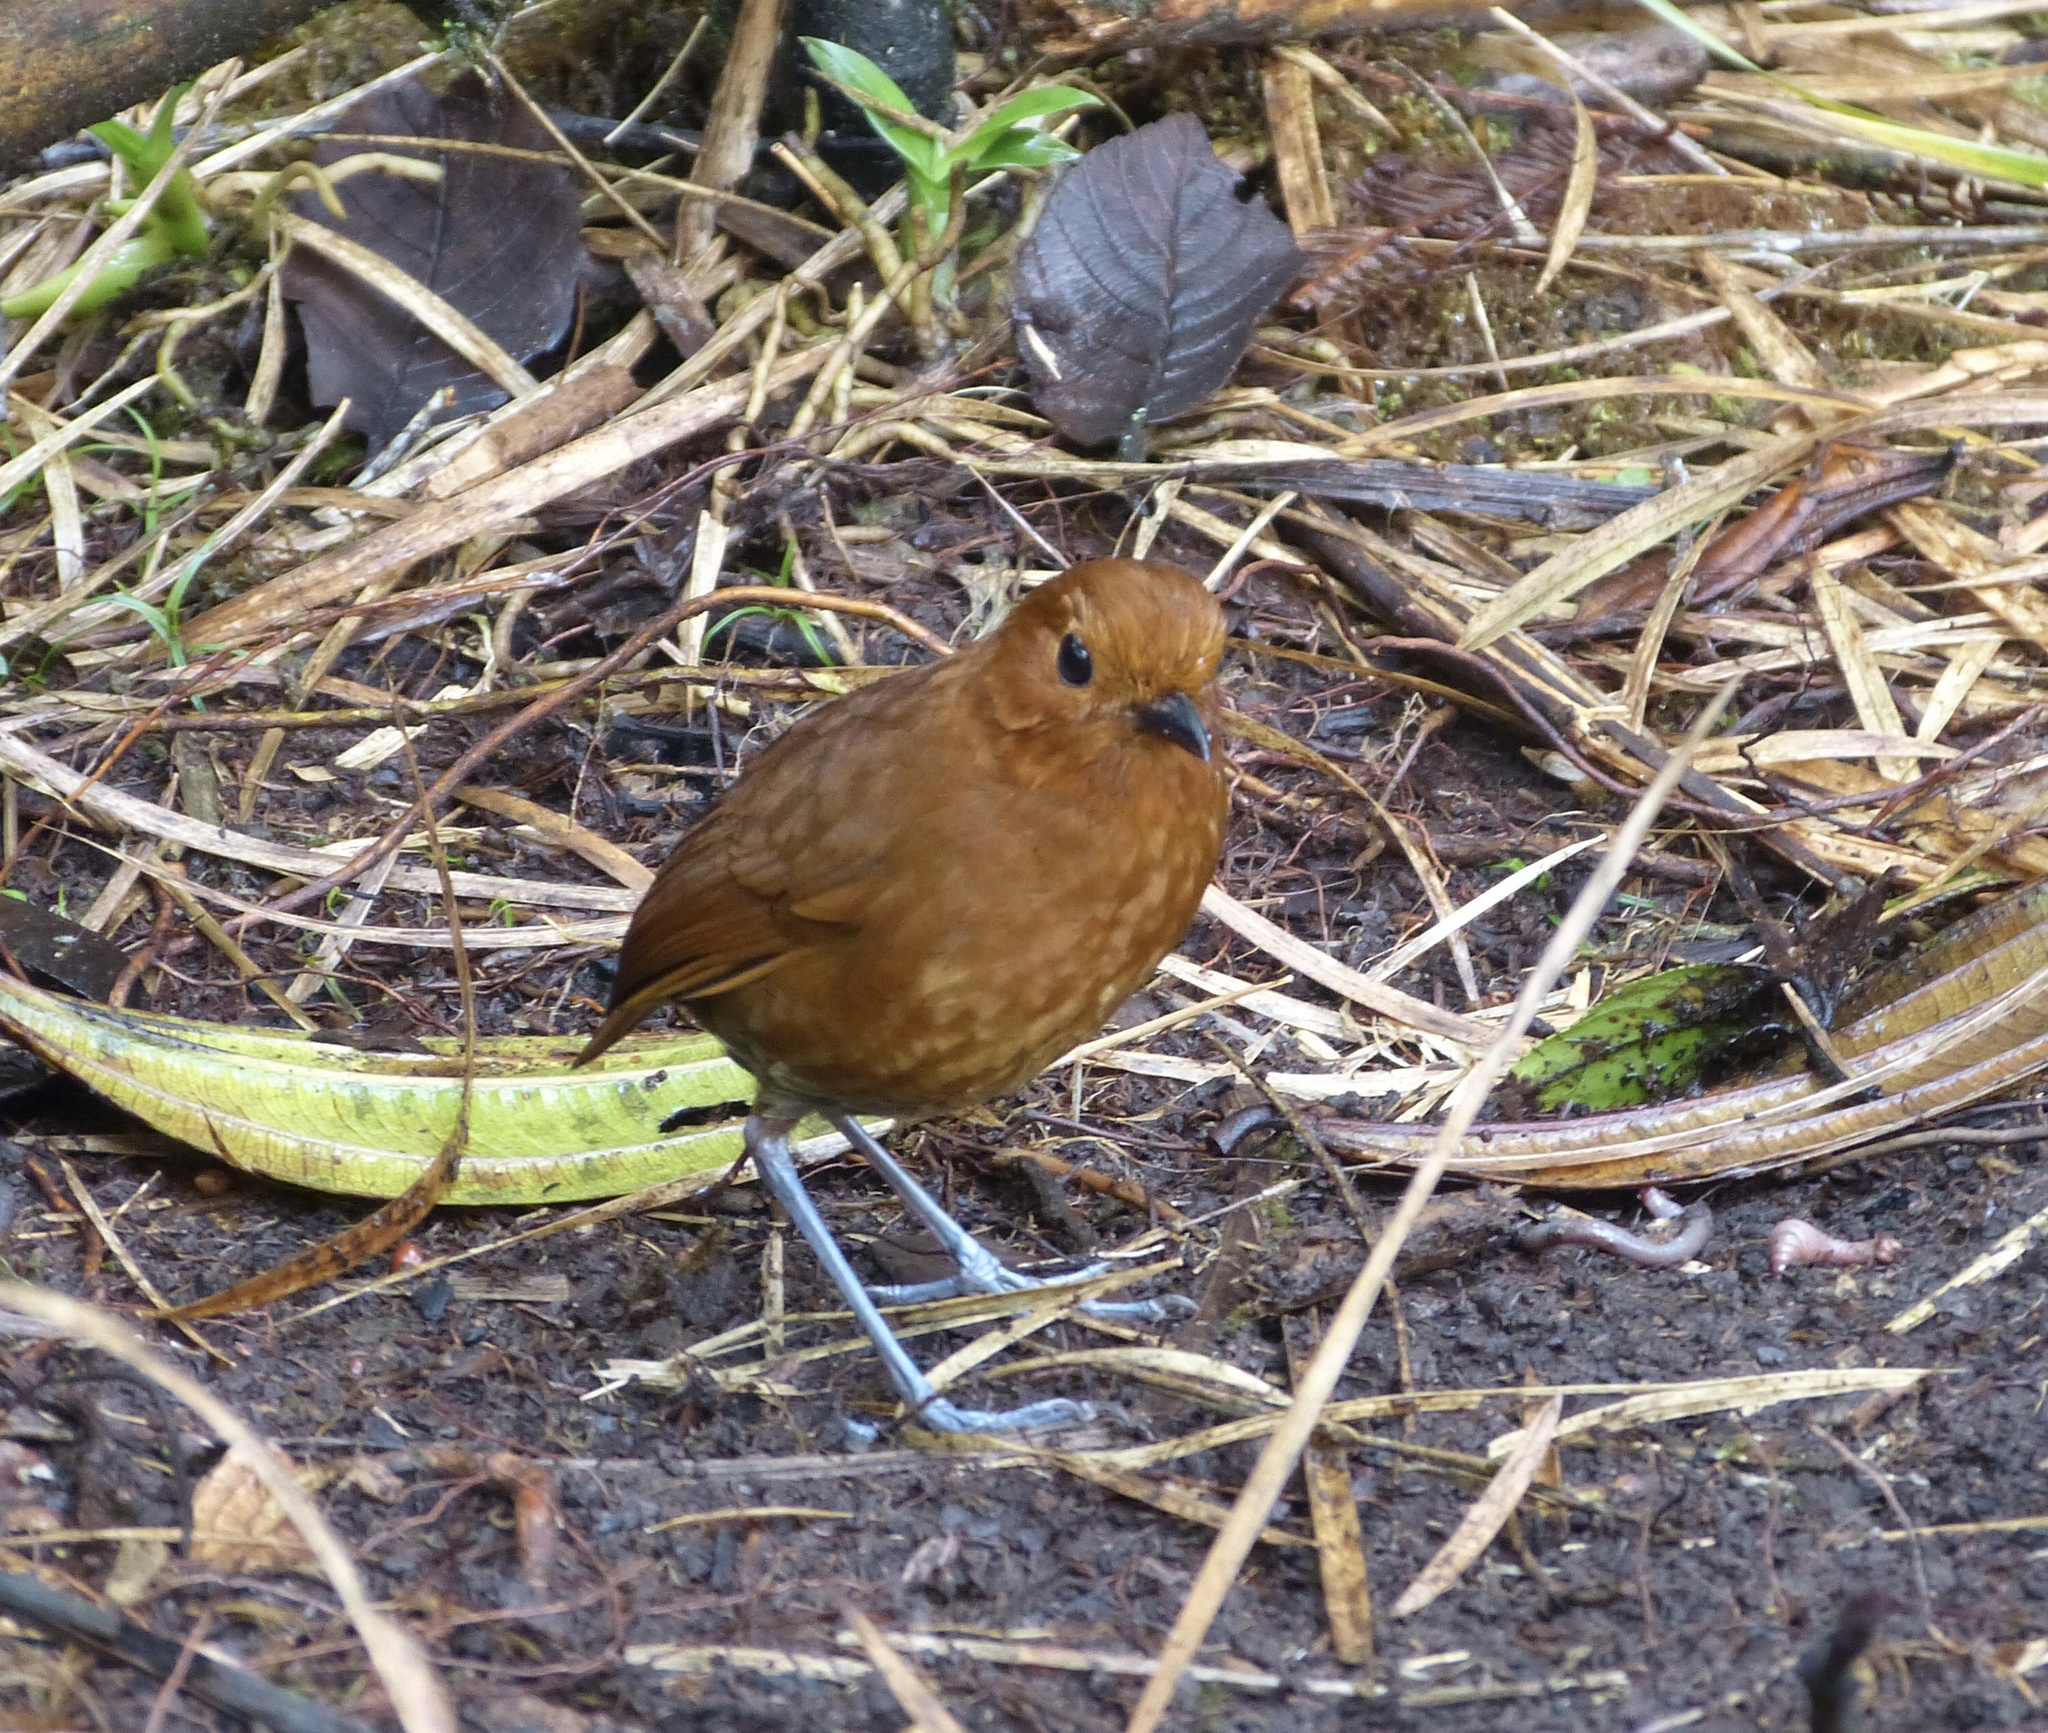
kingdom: Animalia
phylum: Chordata
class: Aves
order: Passeriformes
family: Grallariidae
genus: Grallaria
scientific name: Grallaria alvarezi
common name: Chami antpitta
